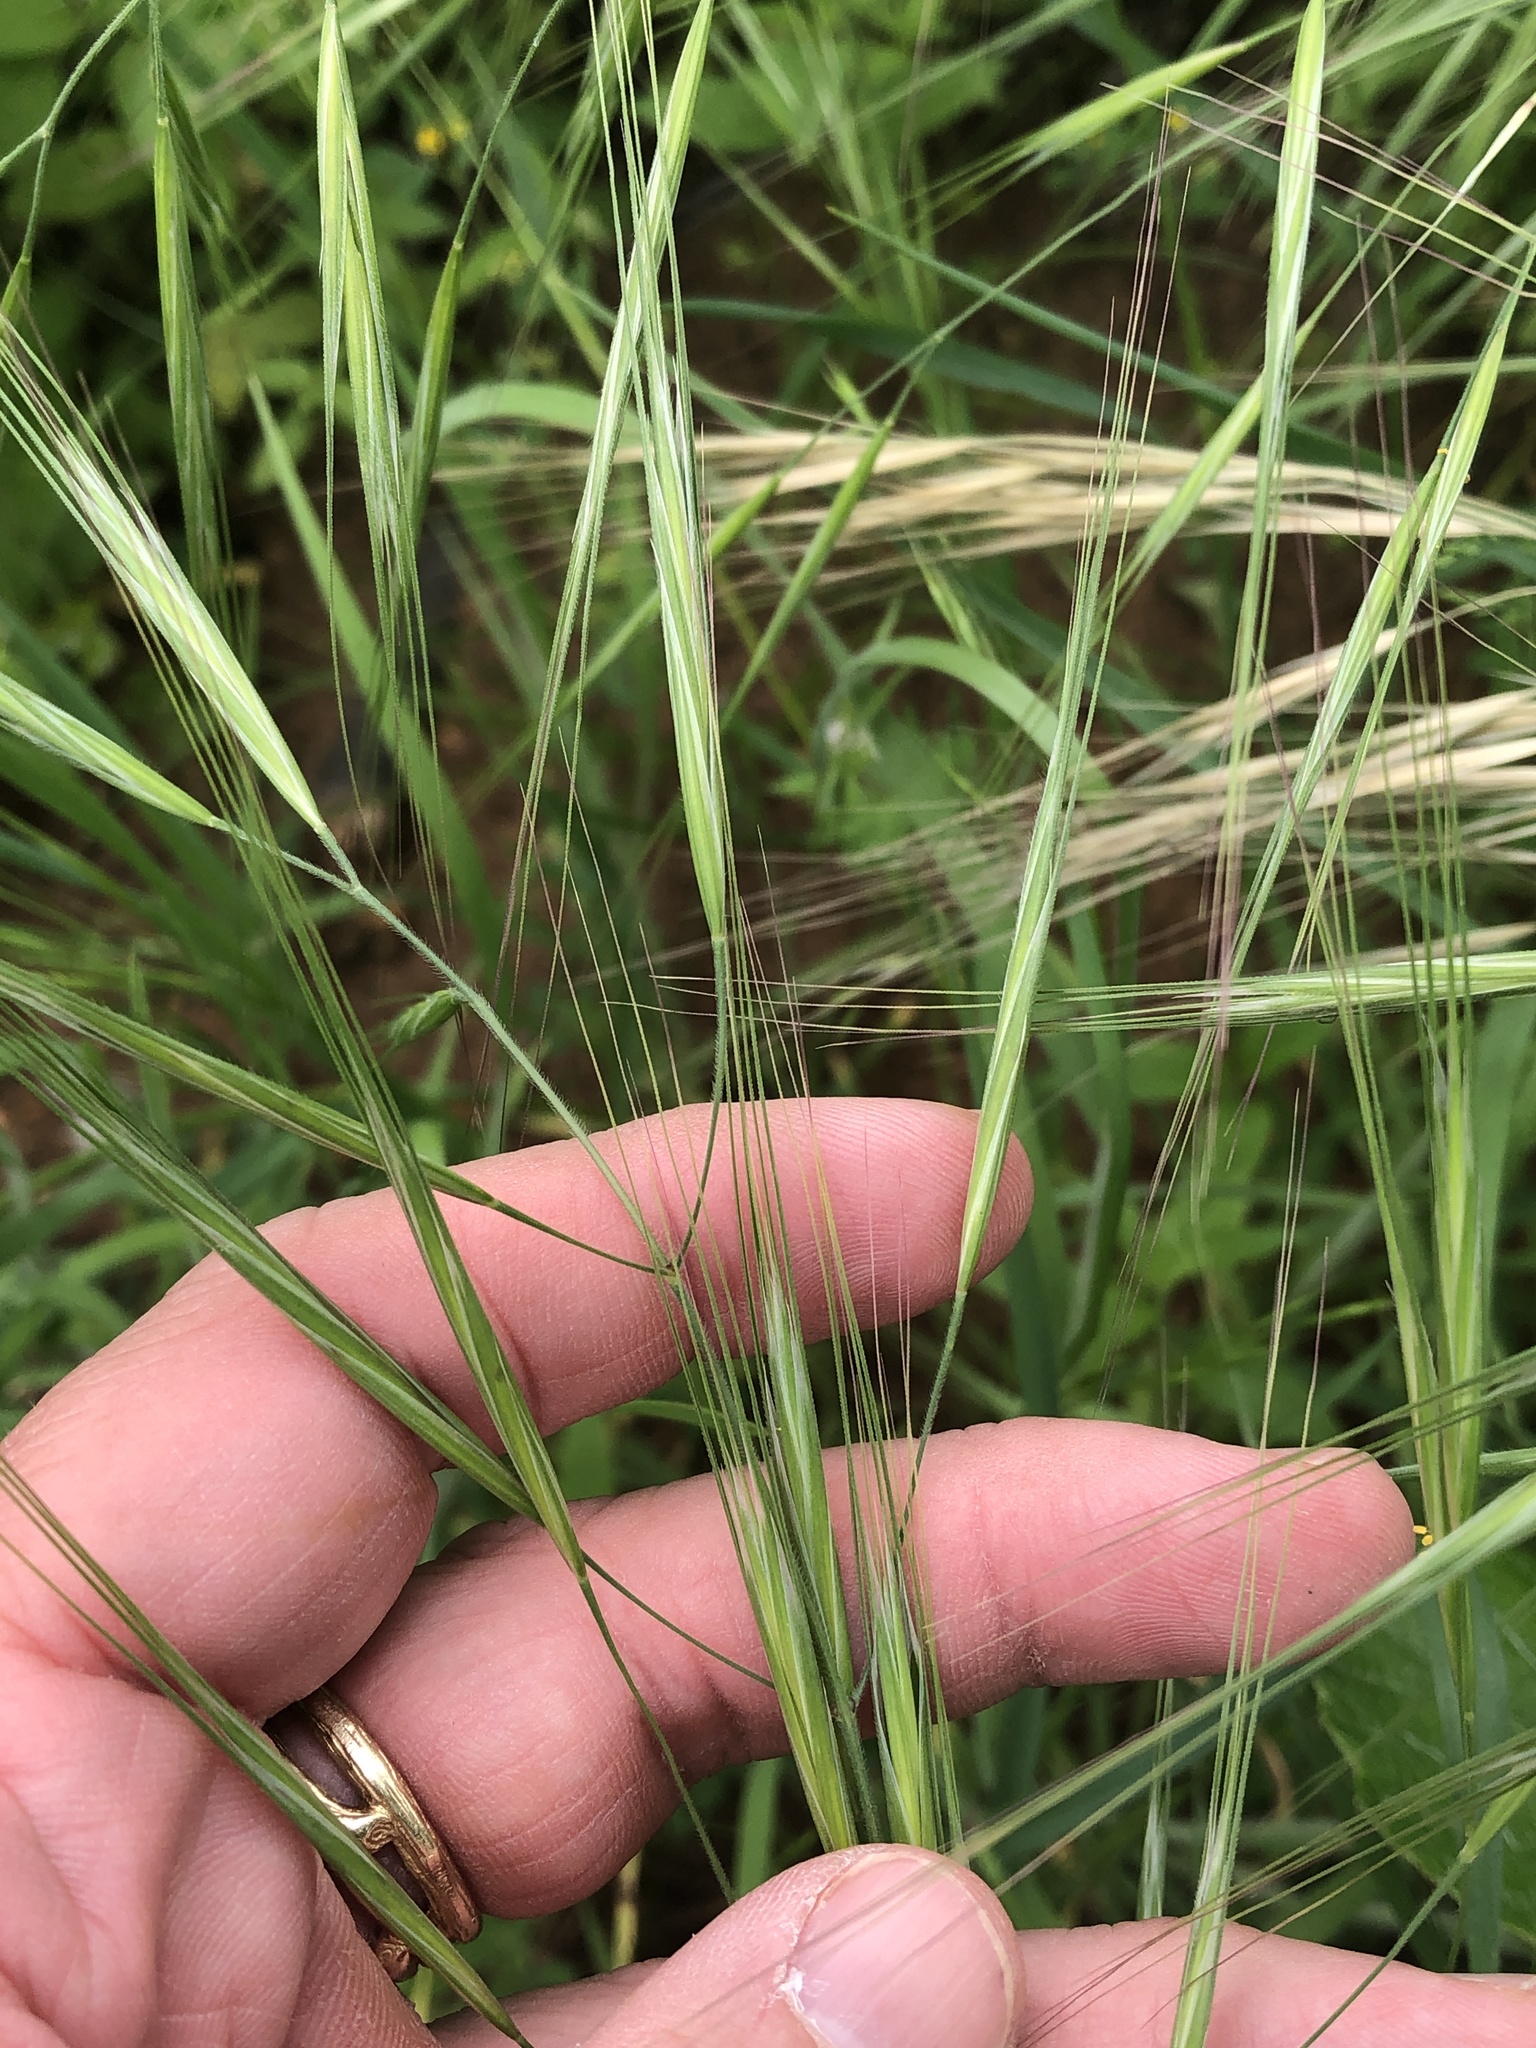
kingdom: Plantae
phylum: Tracheophyta
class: Liliopsida
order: Poales
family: Poaceae
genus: Bromus
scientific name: Bromus diandrus
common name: Ripgut brome
